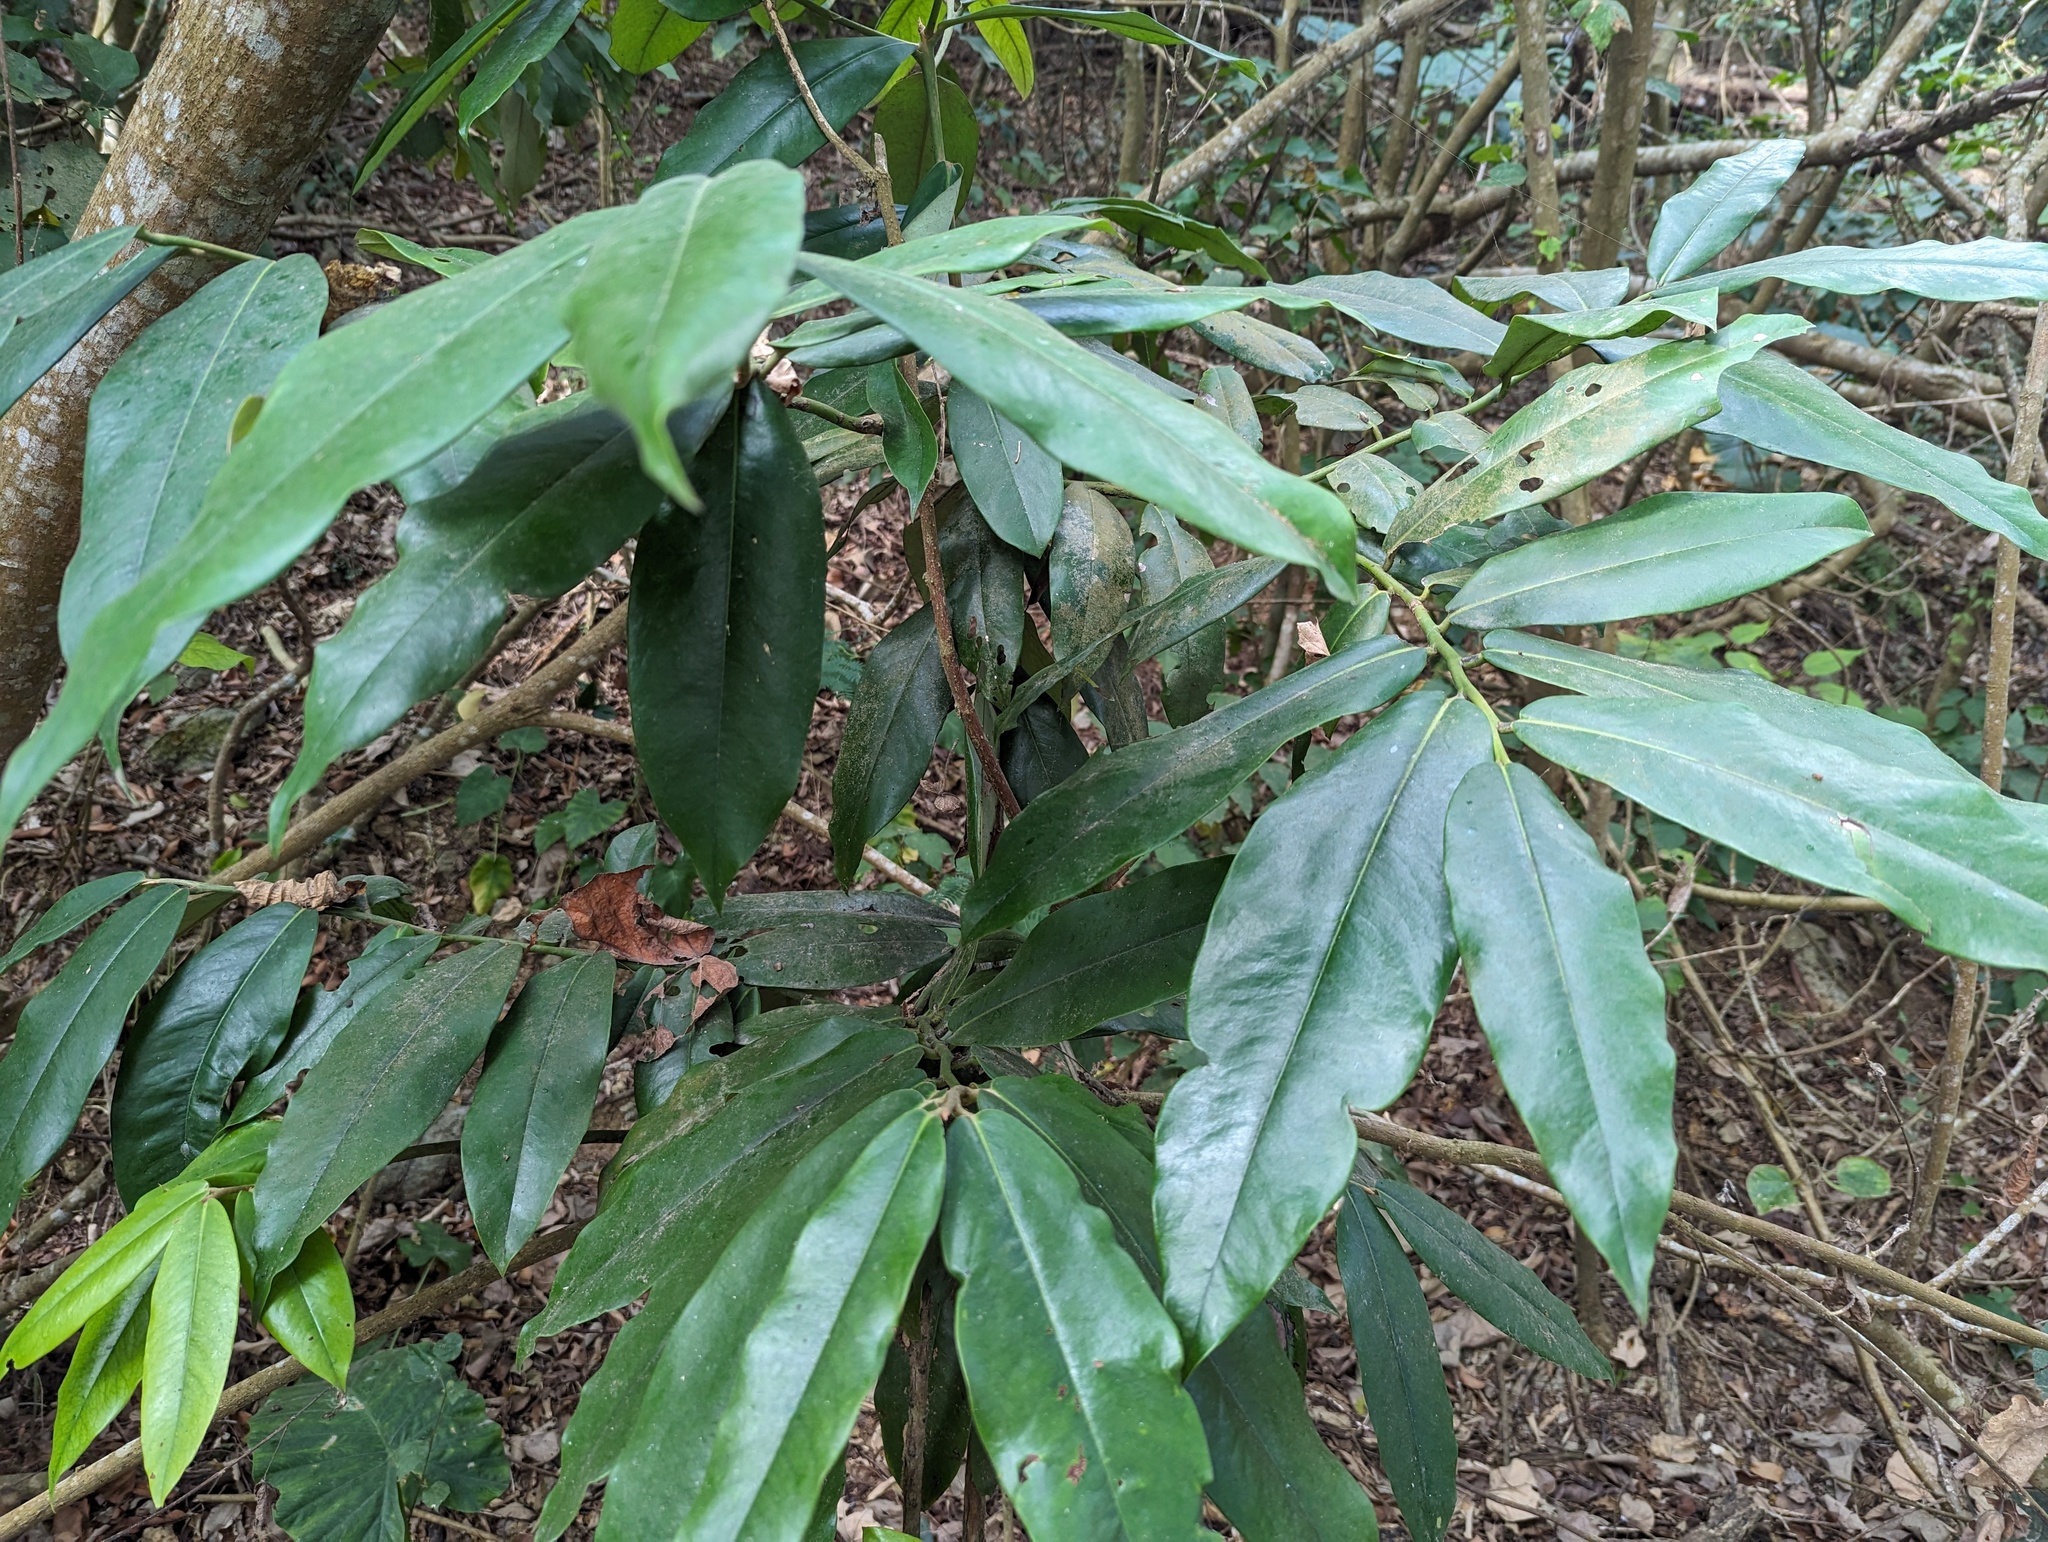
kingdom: Plantae
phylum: Tracheophyta
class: Magnoliopsida
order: Ericales
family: Ebenaceae
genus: Diospyros
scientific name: Diospyros blancoi
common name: Mabola-tree
